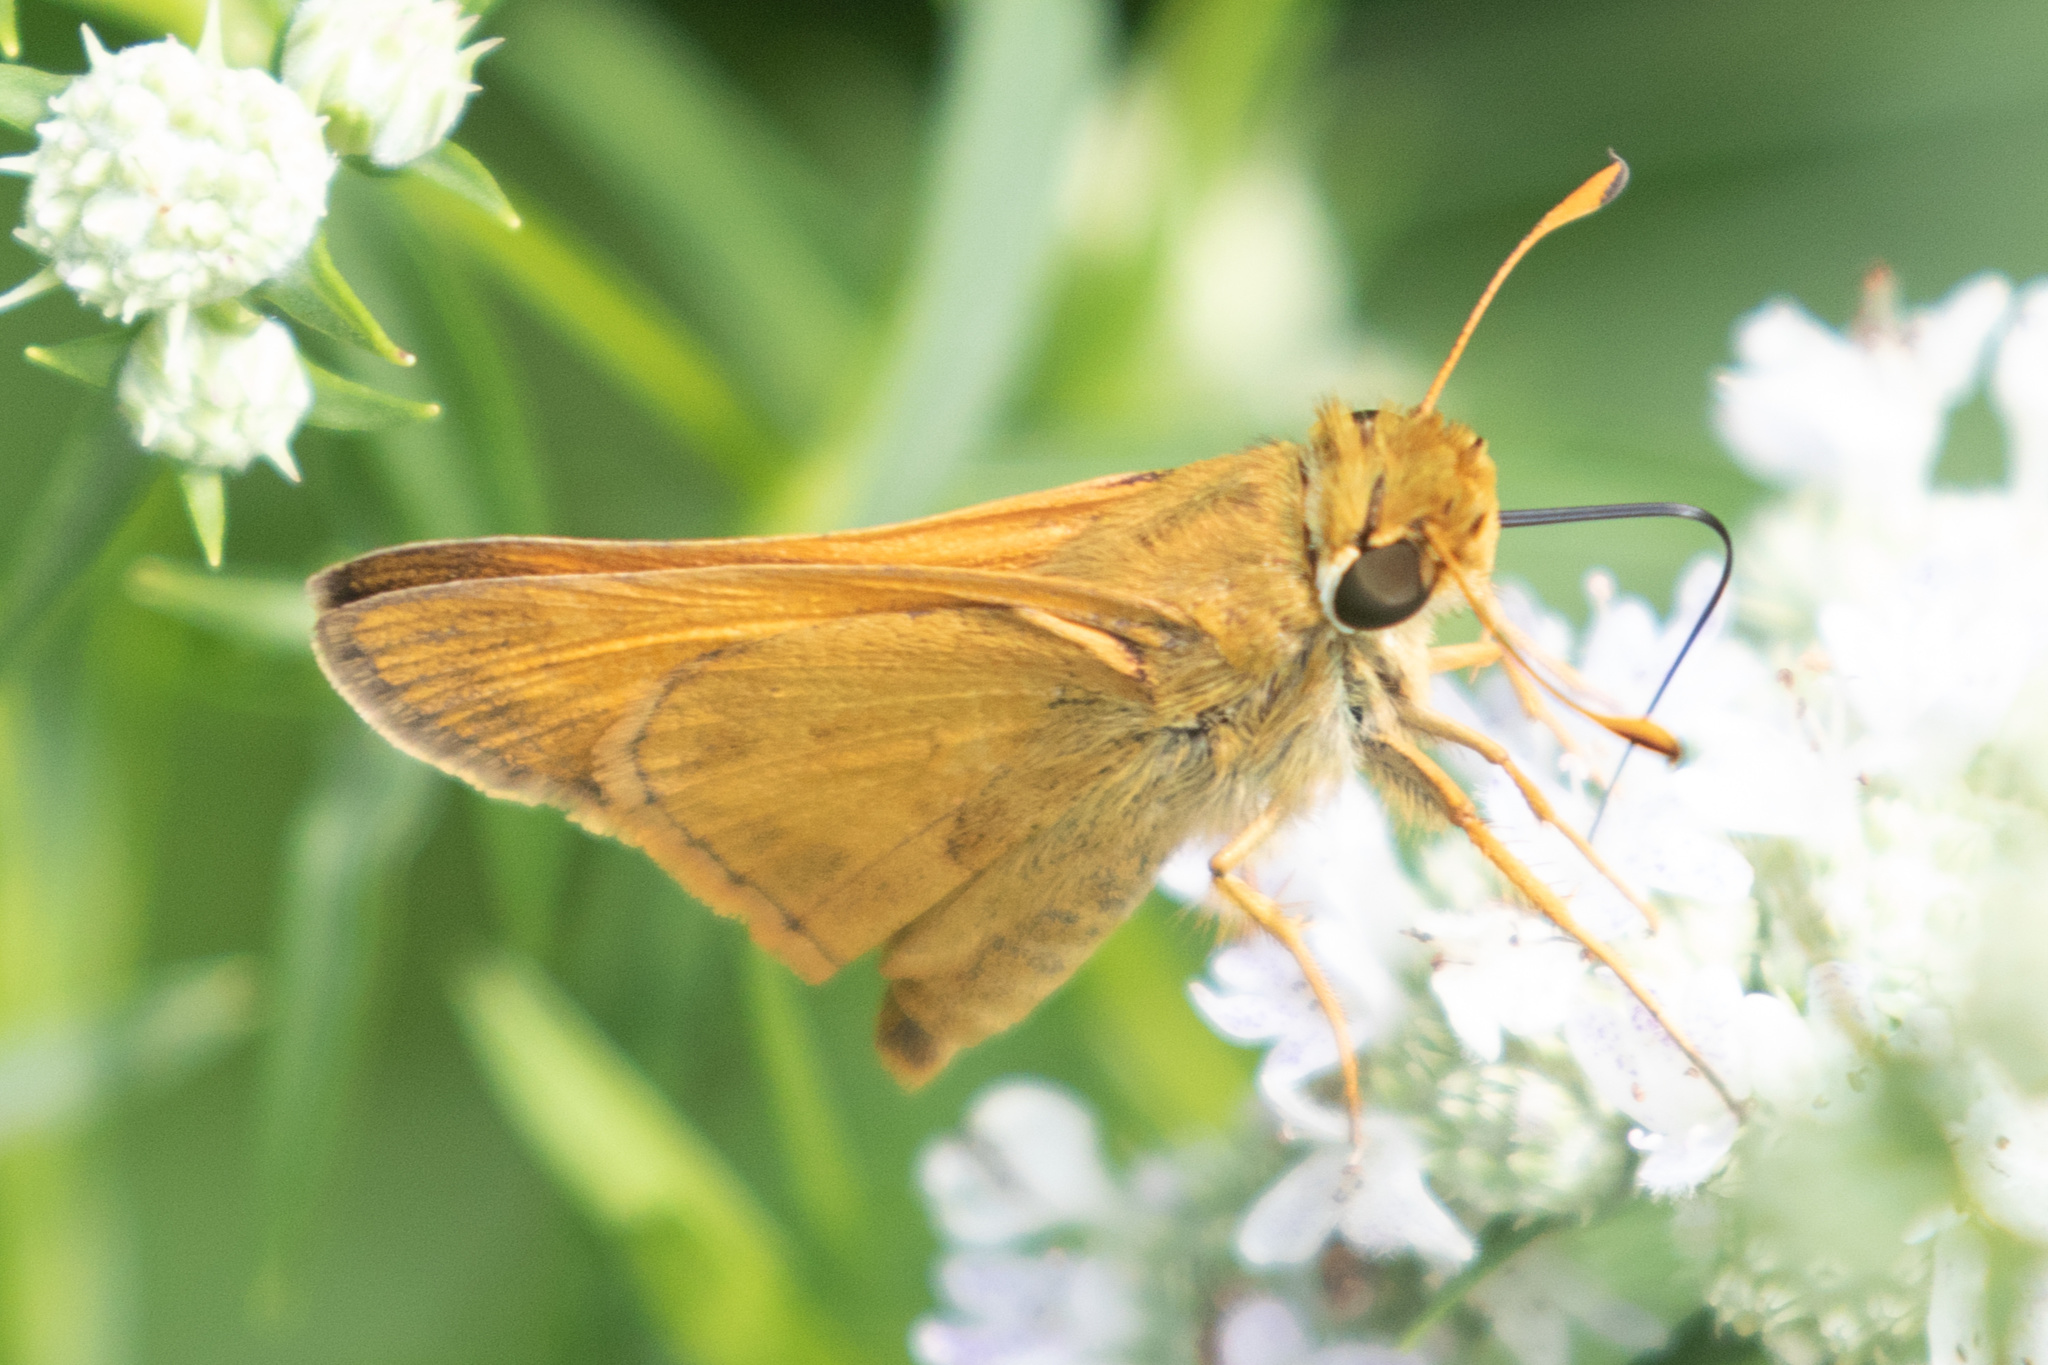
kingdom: Animalia
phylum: Arthropoda
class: Insecta
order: Lepidoptera
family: Hesperiidae
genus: Atalopedes
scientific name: Atalopedes
